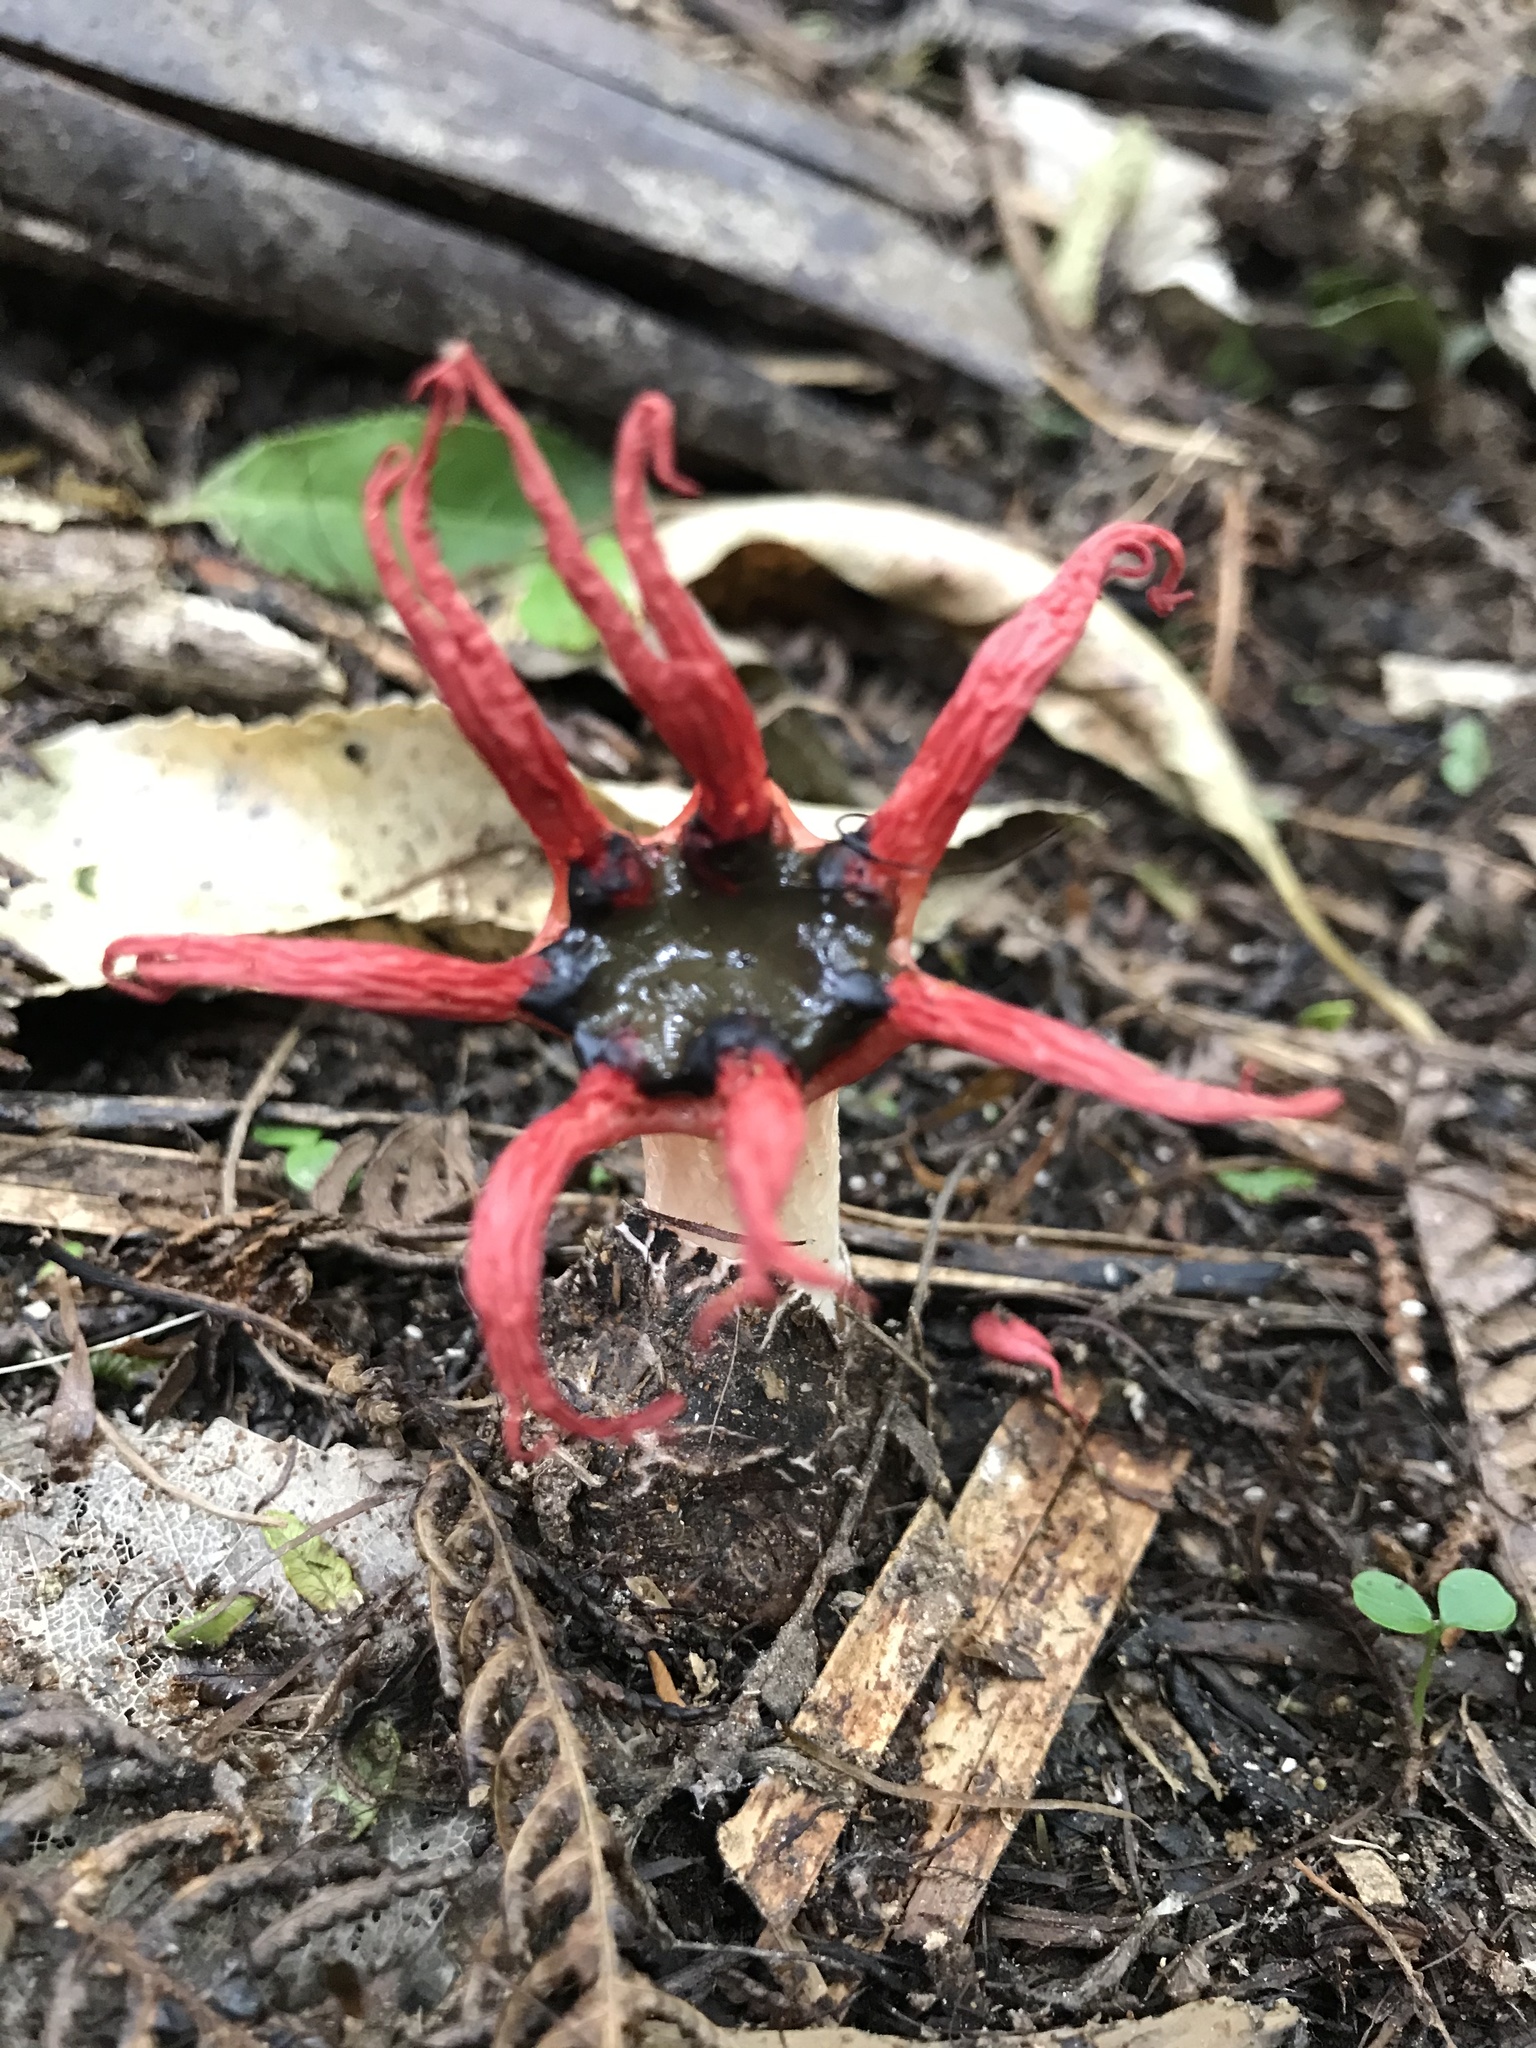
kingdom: Fungi
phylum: Basidiomycota
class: Agaricomycetes
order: Phallales
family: Phallaceae
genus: Aseroe
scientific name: Aseroe rubra
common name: Starfish fungus
